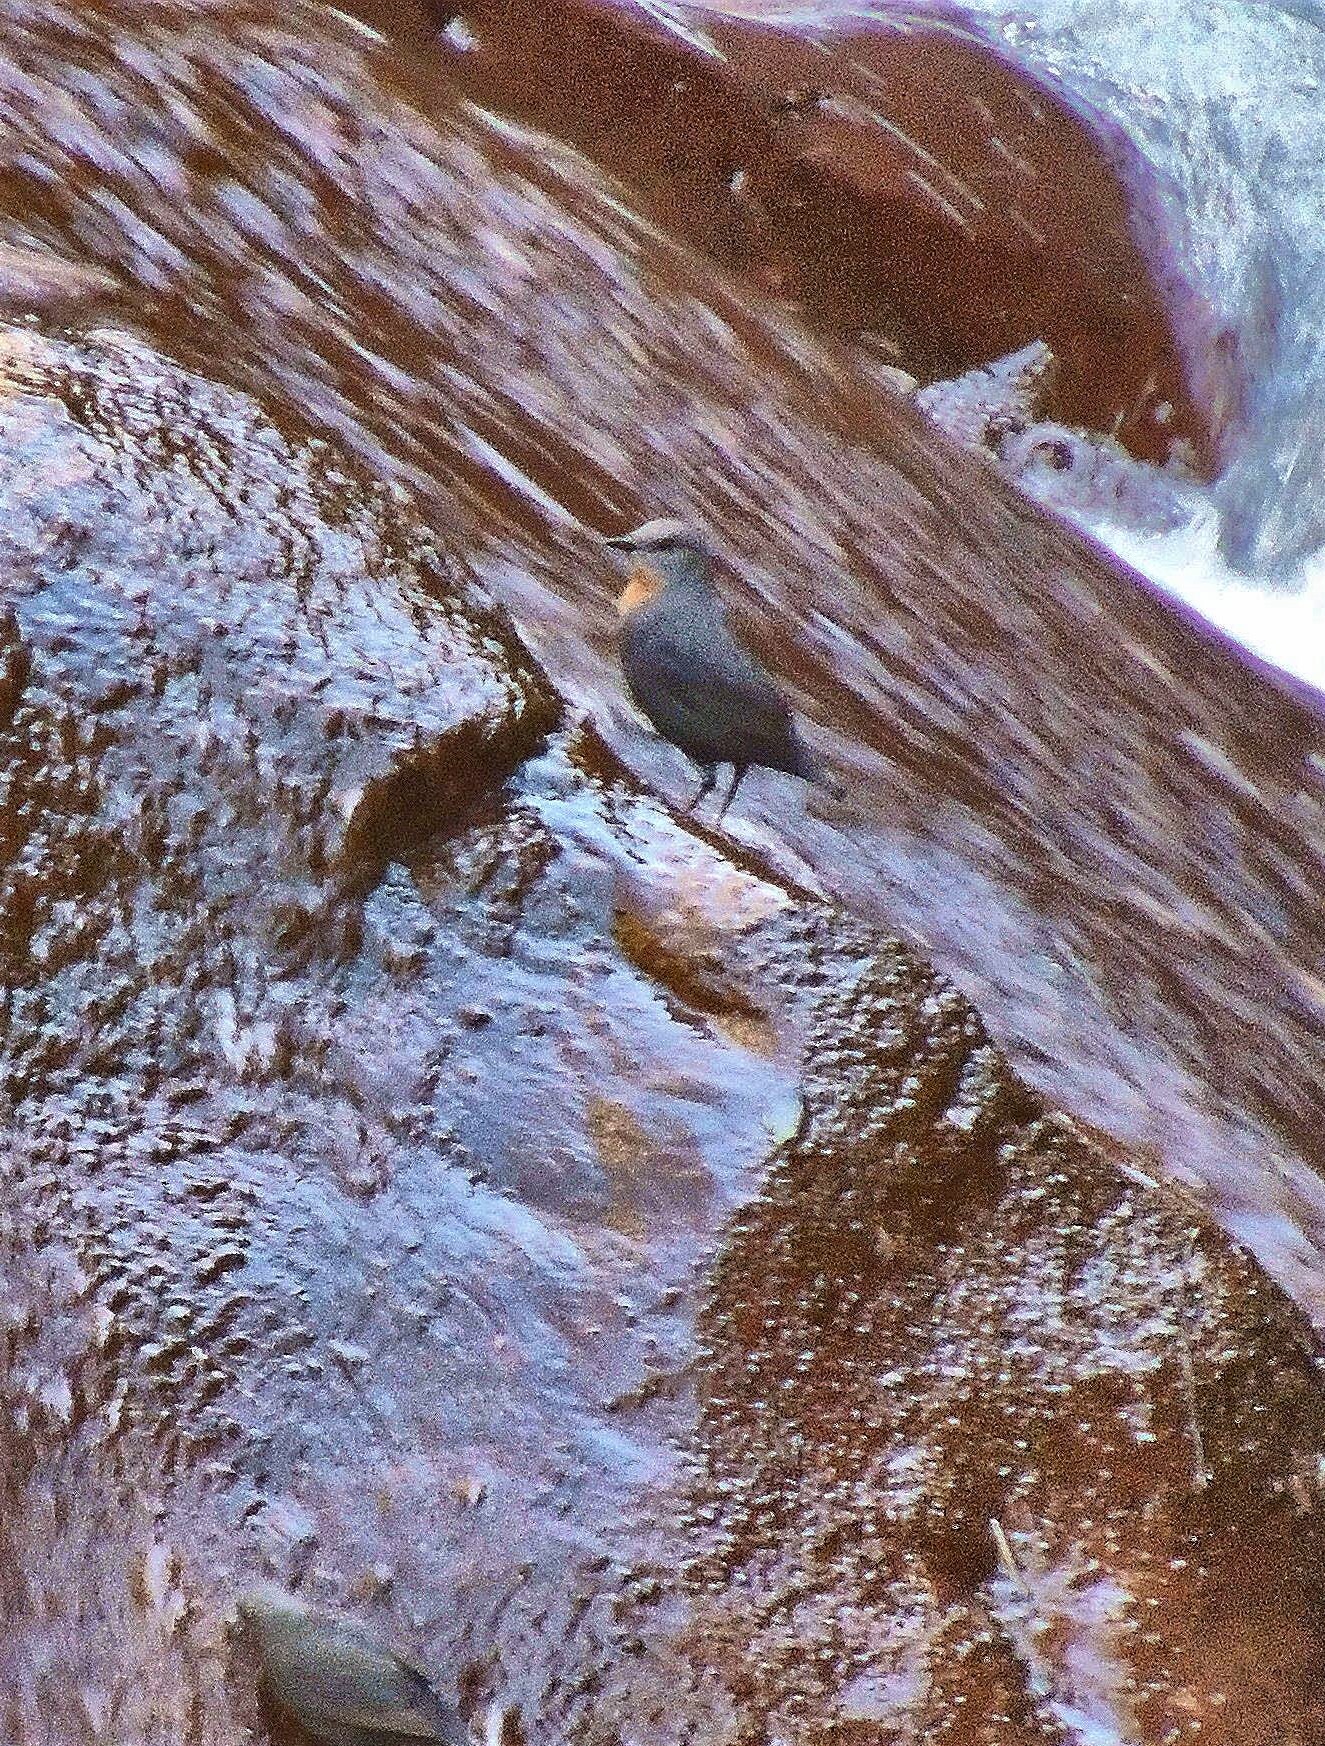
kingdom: Animalia
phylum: Chordata
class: Aves
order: Passeriformes
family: Cinclidae
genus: Cinclus
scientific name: Cinclus schulzii
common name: Rufous-throated dipper
